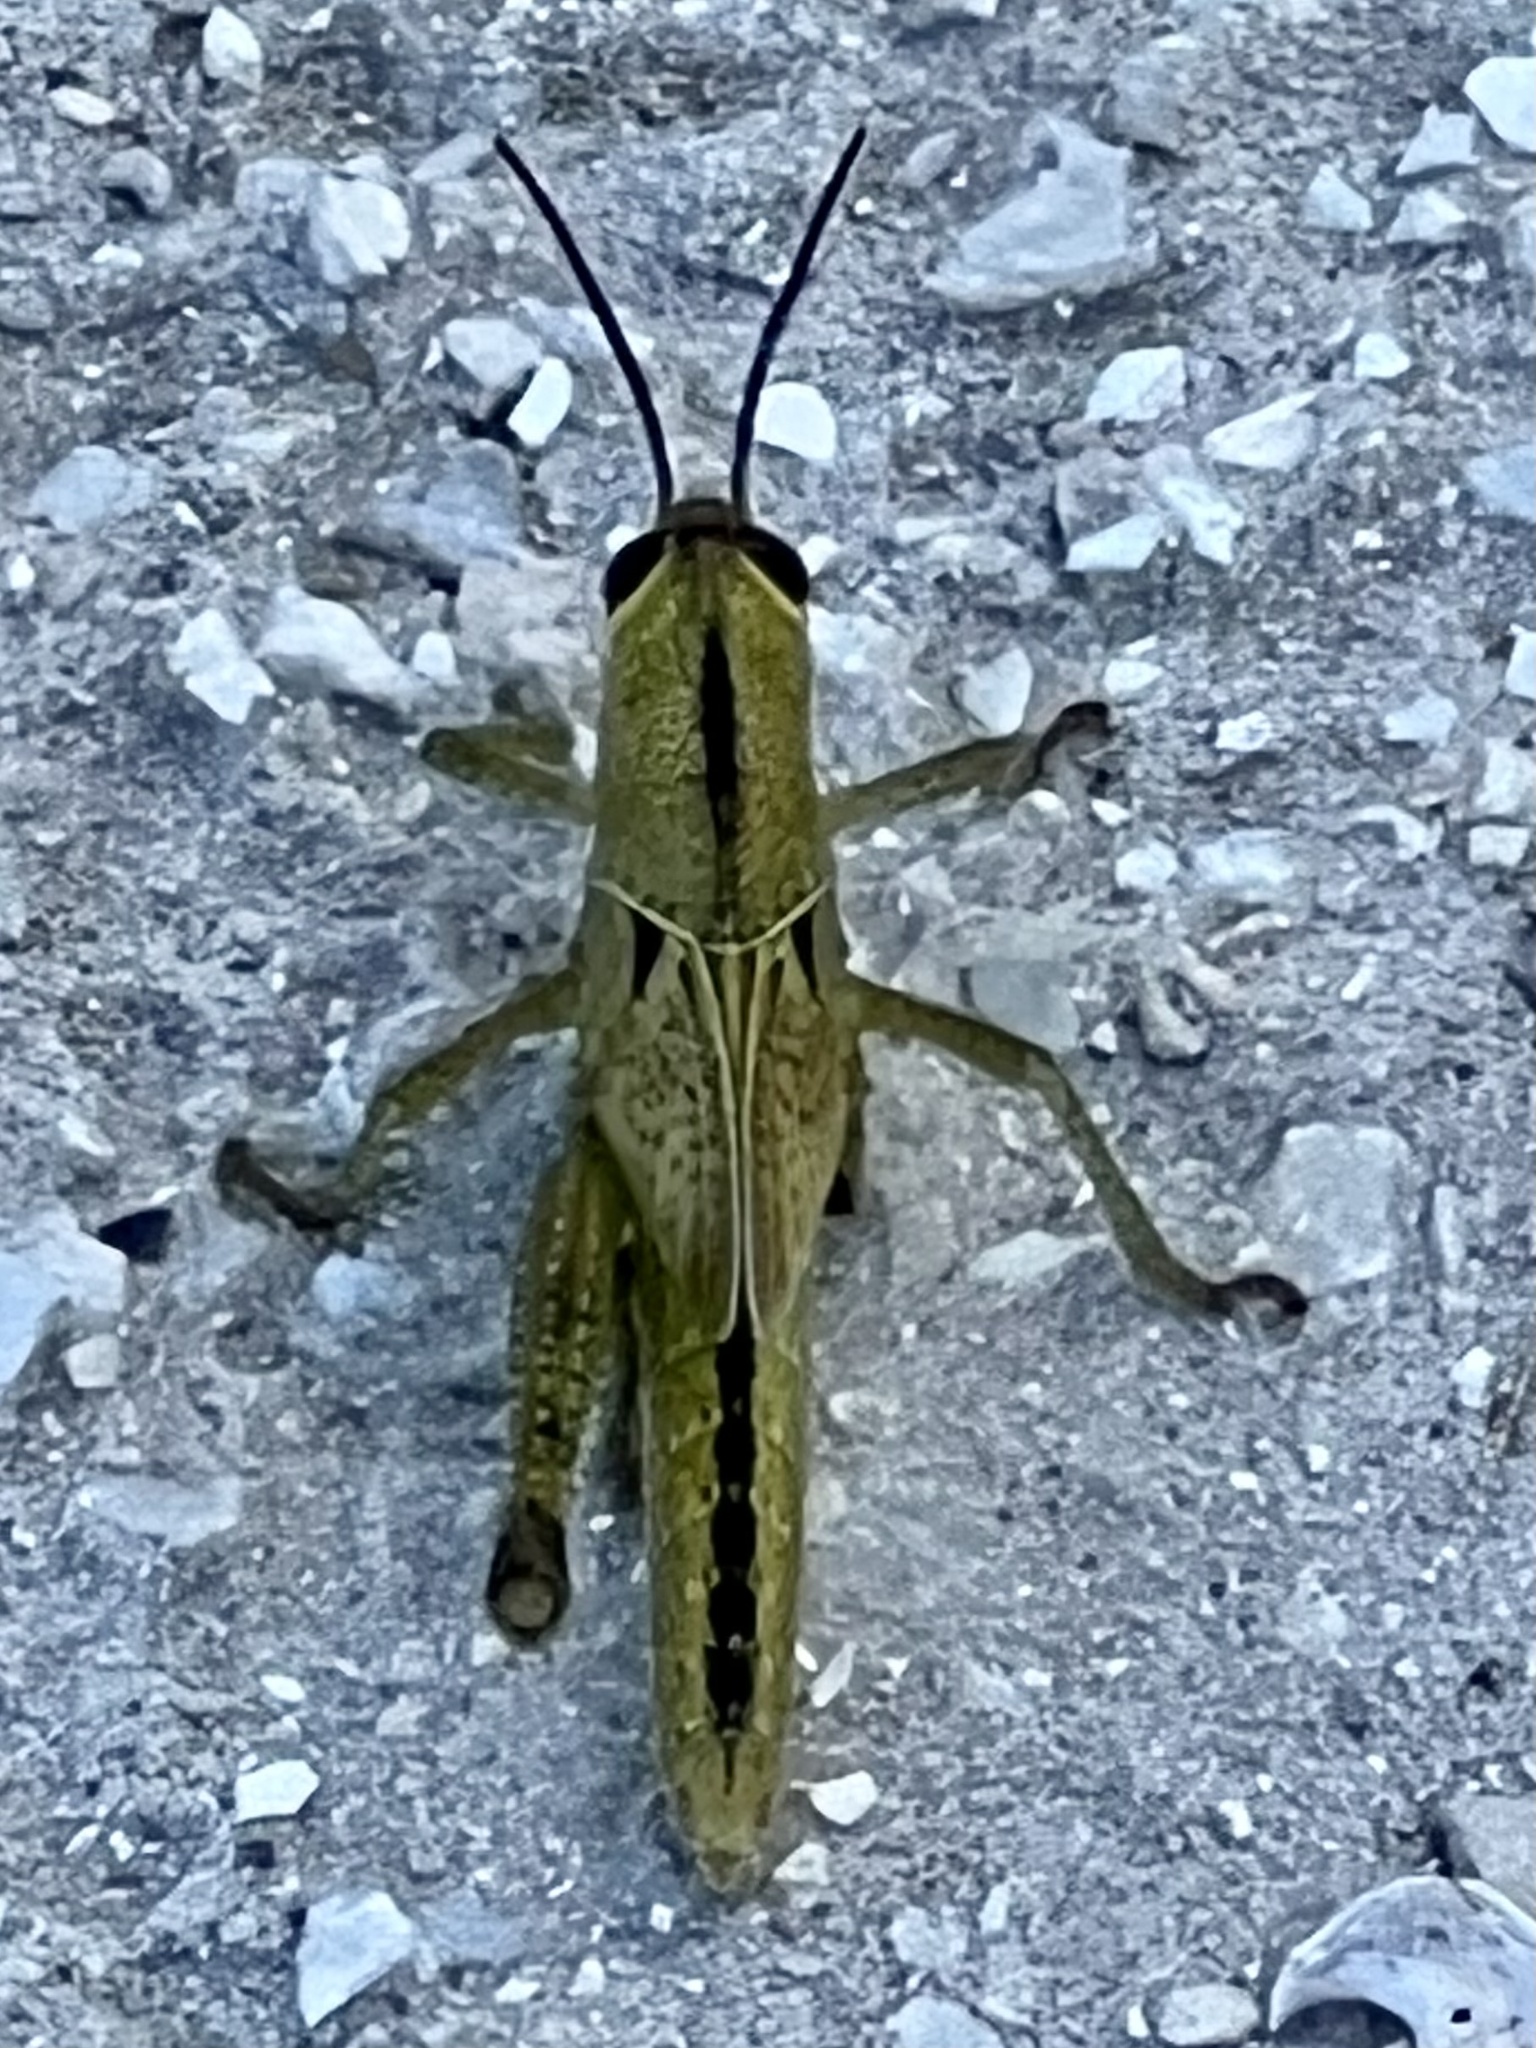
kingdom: Animalia
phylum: Arthropoda
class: Insecta
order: Orthoptera
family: Acrididae
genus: Schistocerca
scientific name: Schistocerca americana
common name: American bird locust
